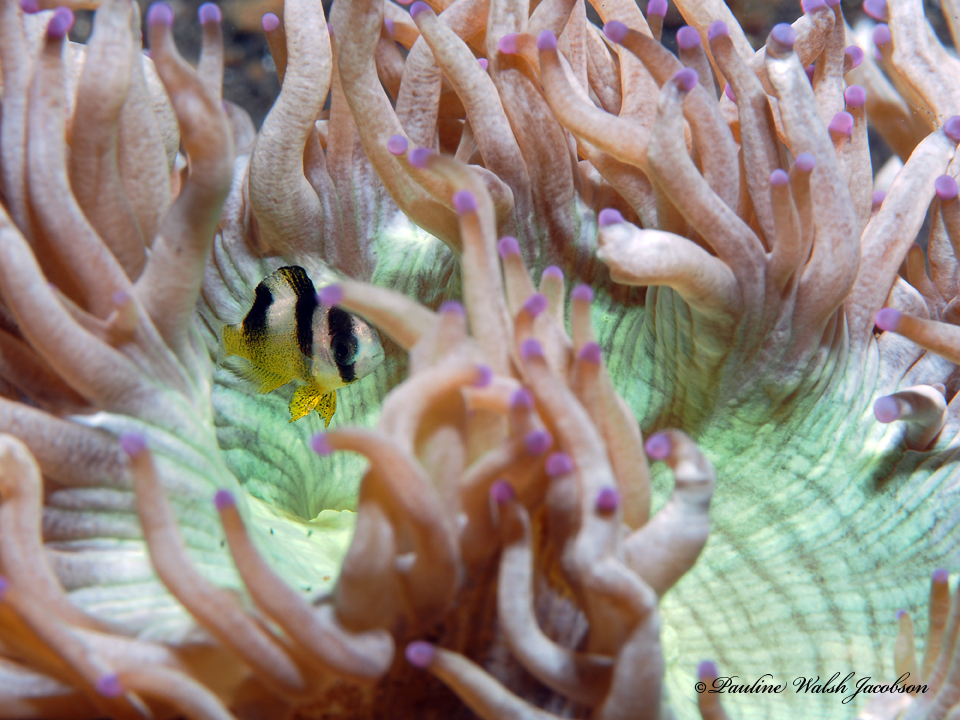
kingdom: Animalia
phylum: Chordata
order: Perciformes
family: Pomacentridae
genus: Amblypomacentrus
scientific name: Amblypomacentrus breviceps
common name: Black-banded demoiselle
